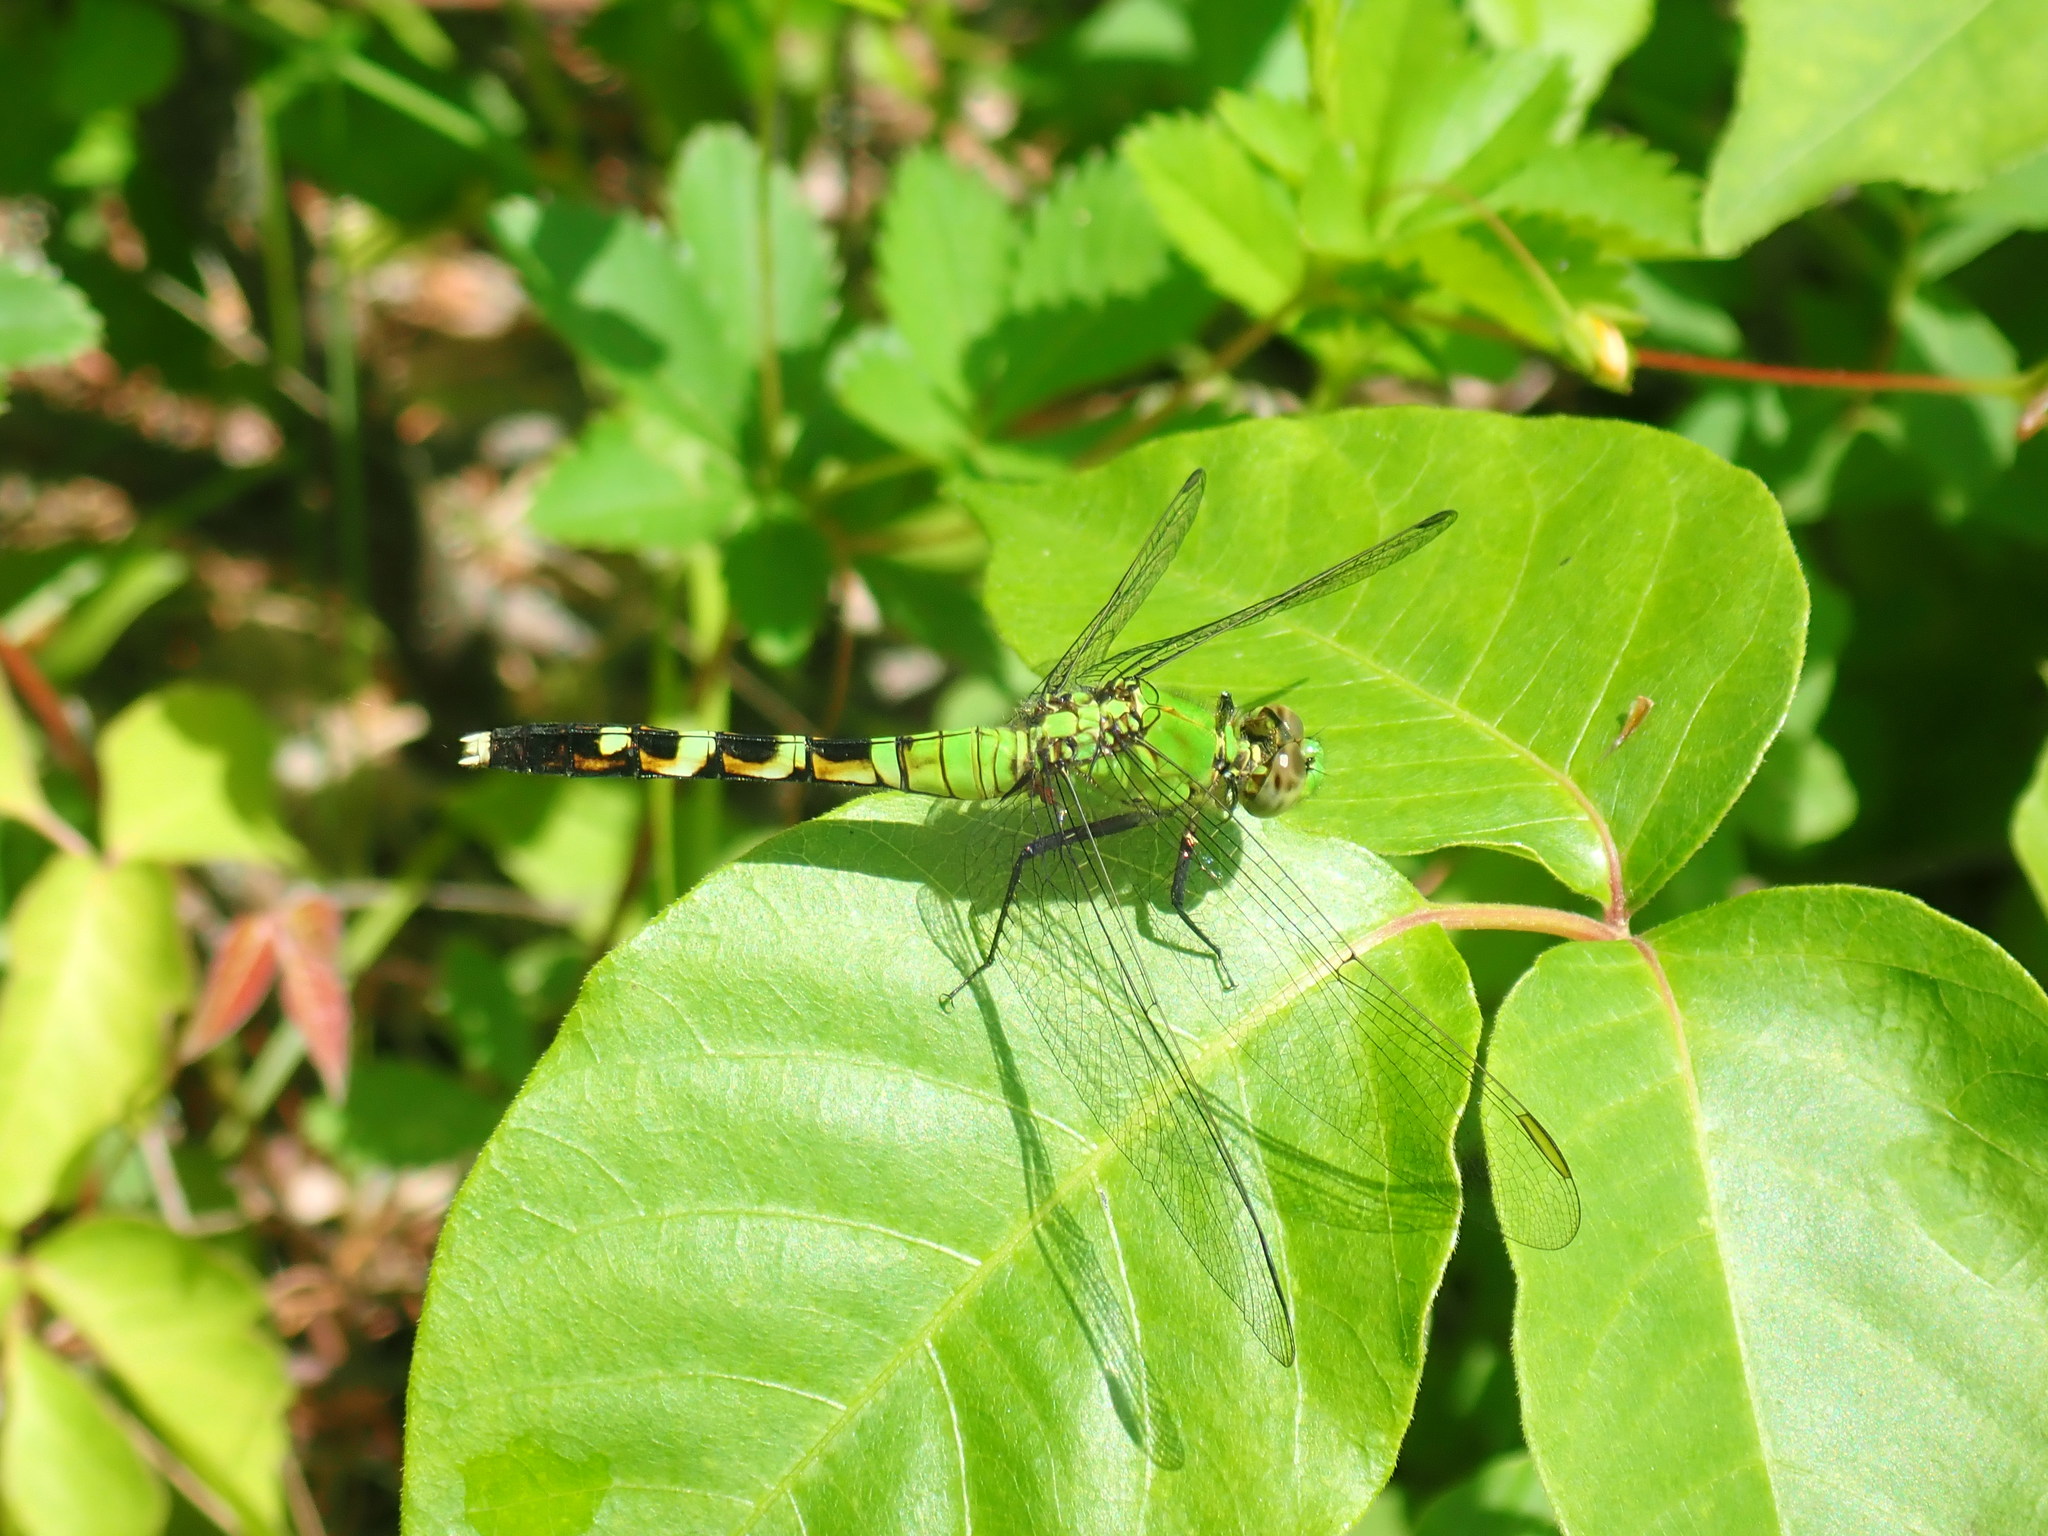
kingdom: Animalia
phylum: Arthropoda
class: Insecta
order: Odonata
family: Libellulidae
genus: Erythemis
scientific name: Erythemis simplicicollis
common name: Eastern pondhawk
